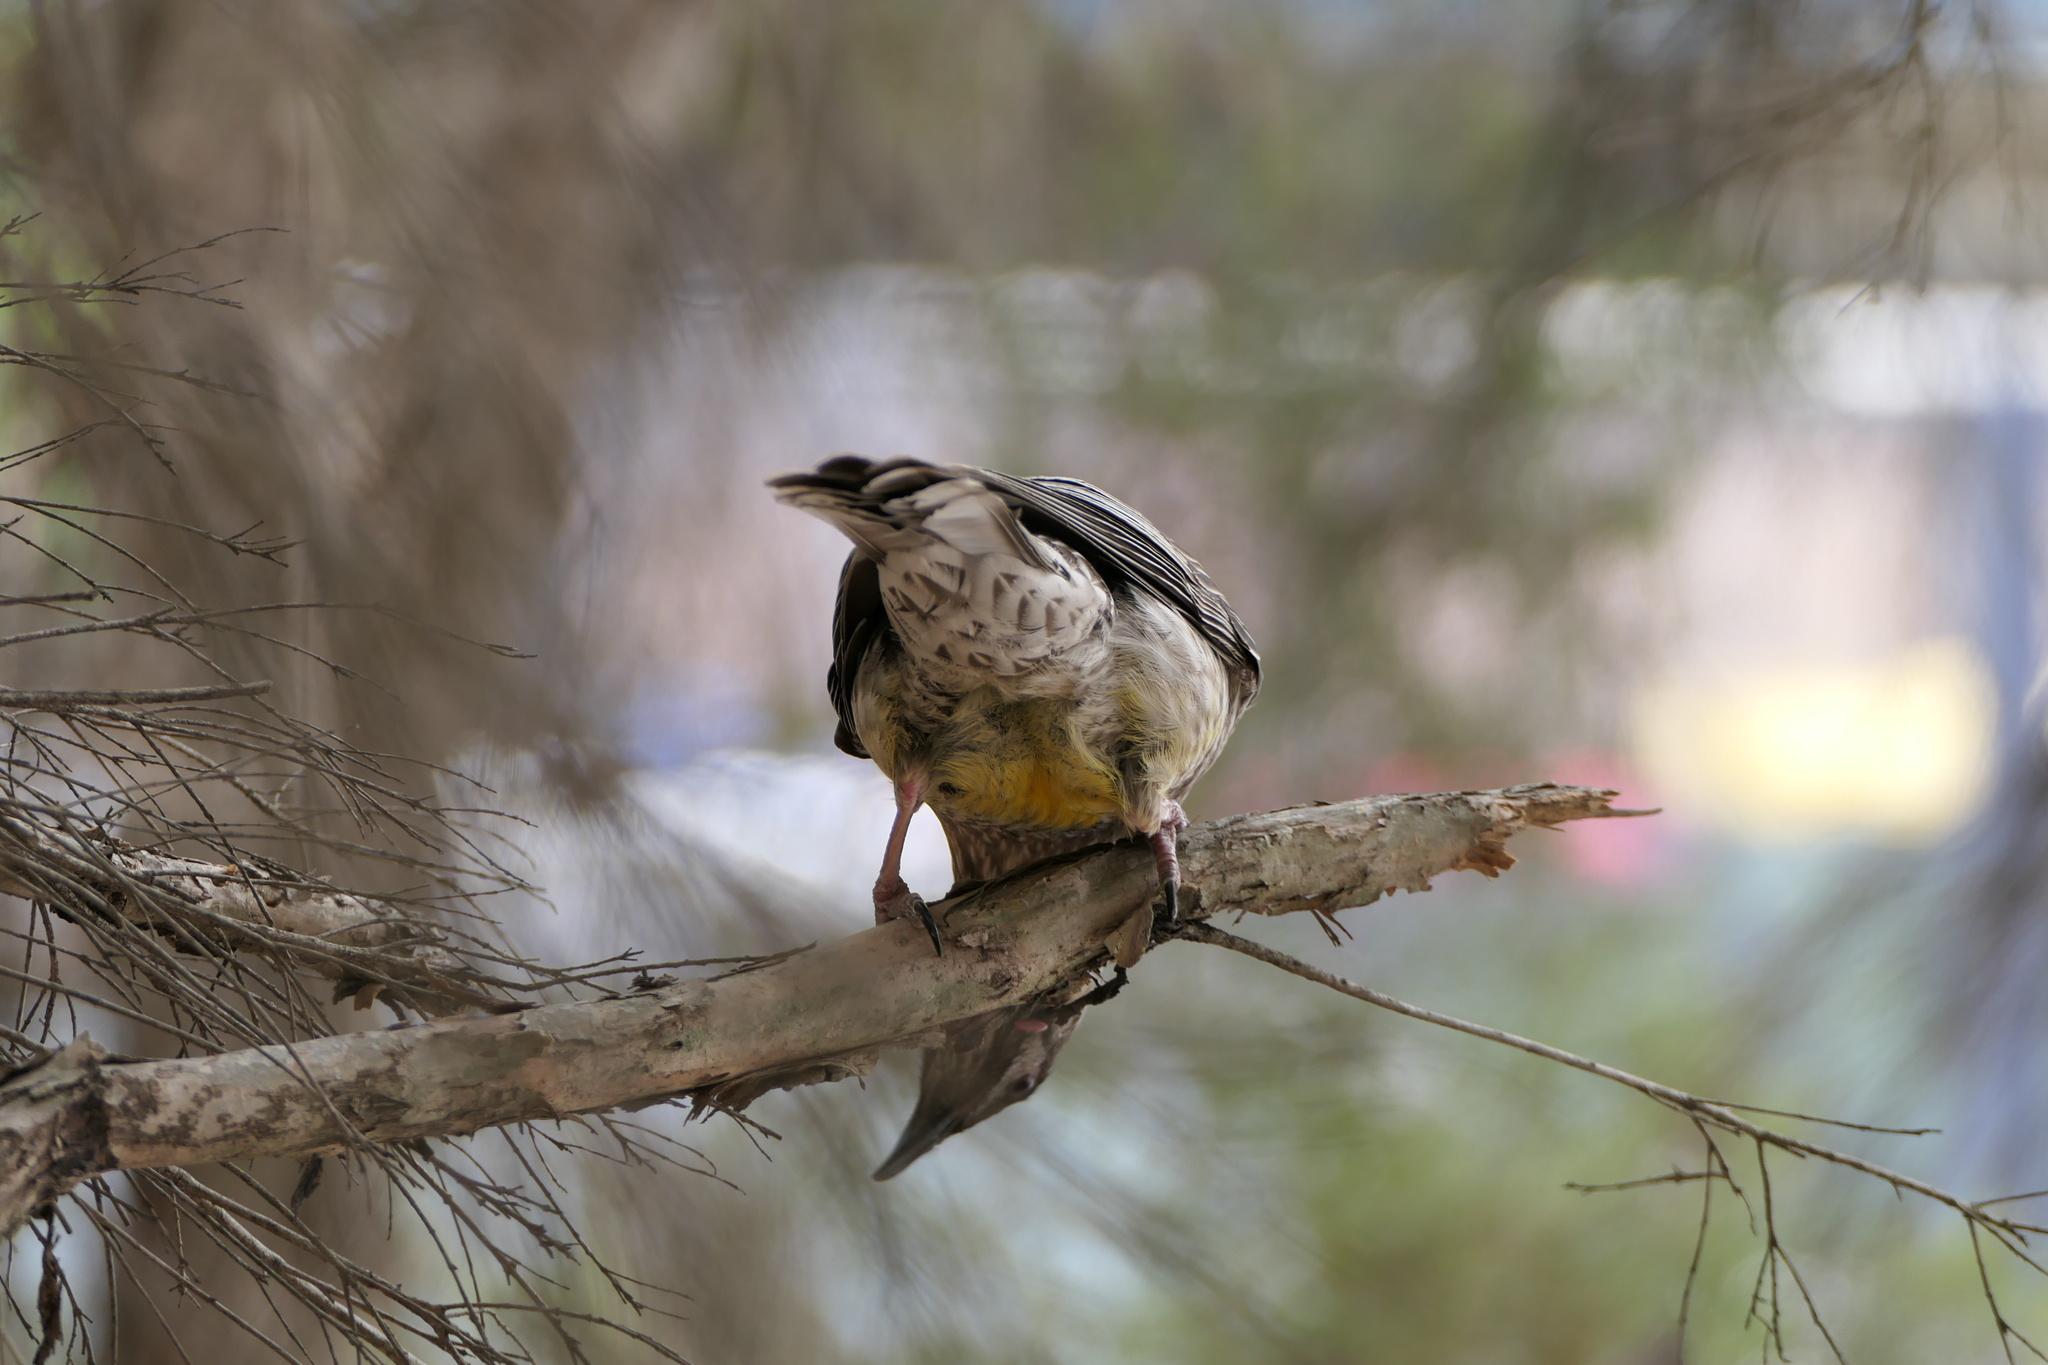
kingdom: Animalia
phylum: Chordata
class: Aves
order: Passeriformes
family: Meliphagidae
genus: Anthochaera
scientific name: Anthochaera carunculata
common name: Red wattlebird
